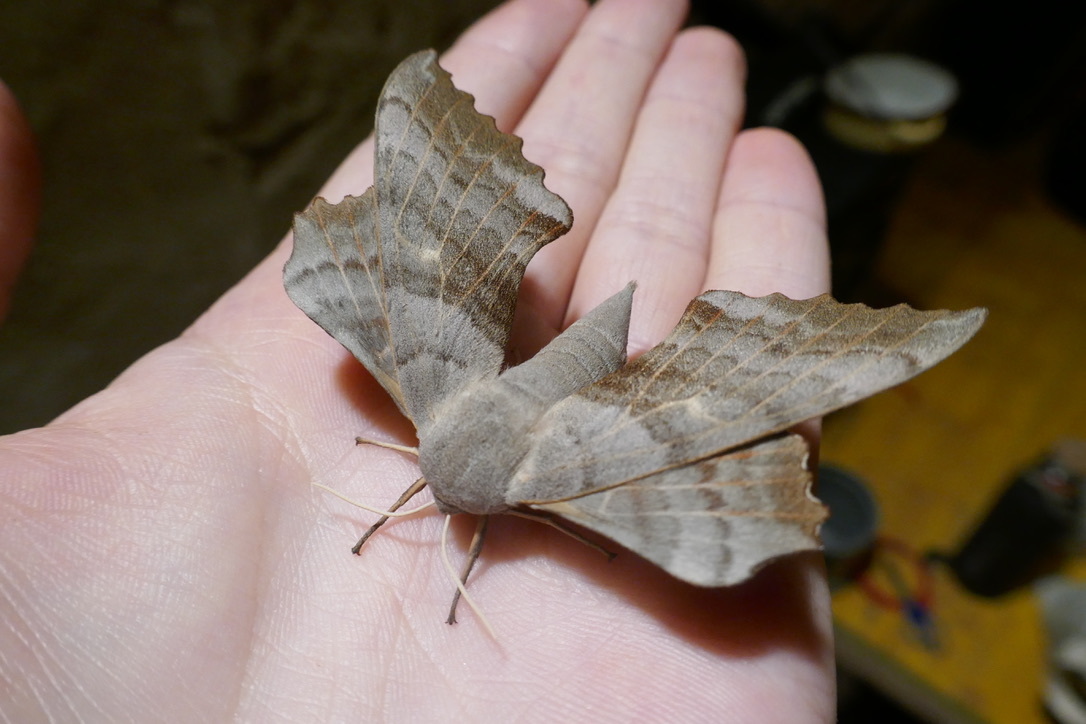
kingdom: Animalia
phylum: Arthropoda
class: Insecta
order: Lepidoptera
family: Sphingidae
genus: Laothoe
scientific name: Laothoe populi
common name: Poplar hawk-moth
